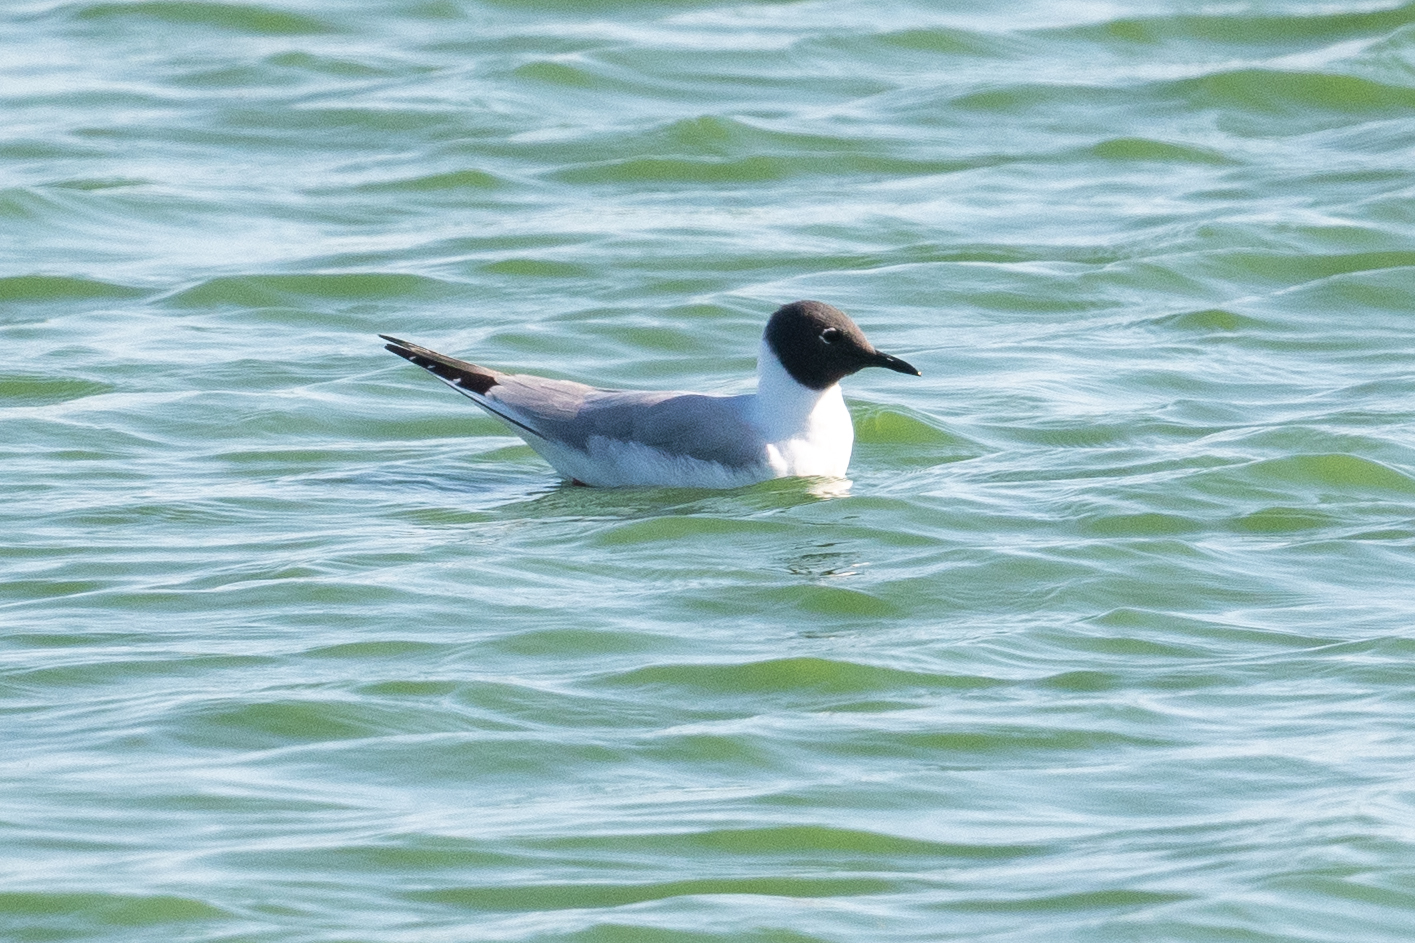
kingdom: Animalia
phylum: Chordata
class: Aves
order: Charadriiformes
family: Laridae
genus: Chroicocephalus
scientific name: Chroicocephalus philadelphia
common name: Bonaparte's gull
